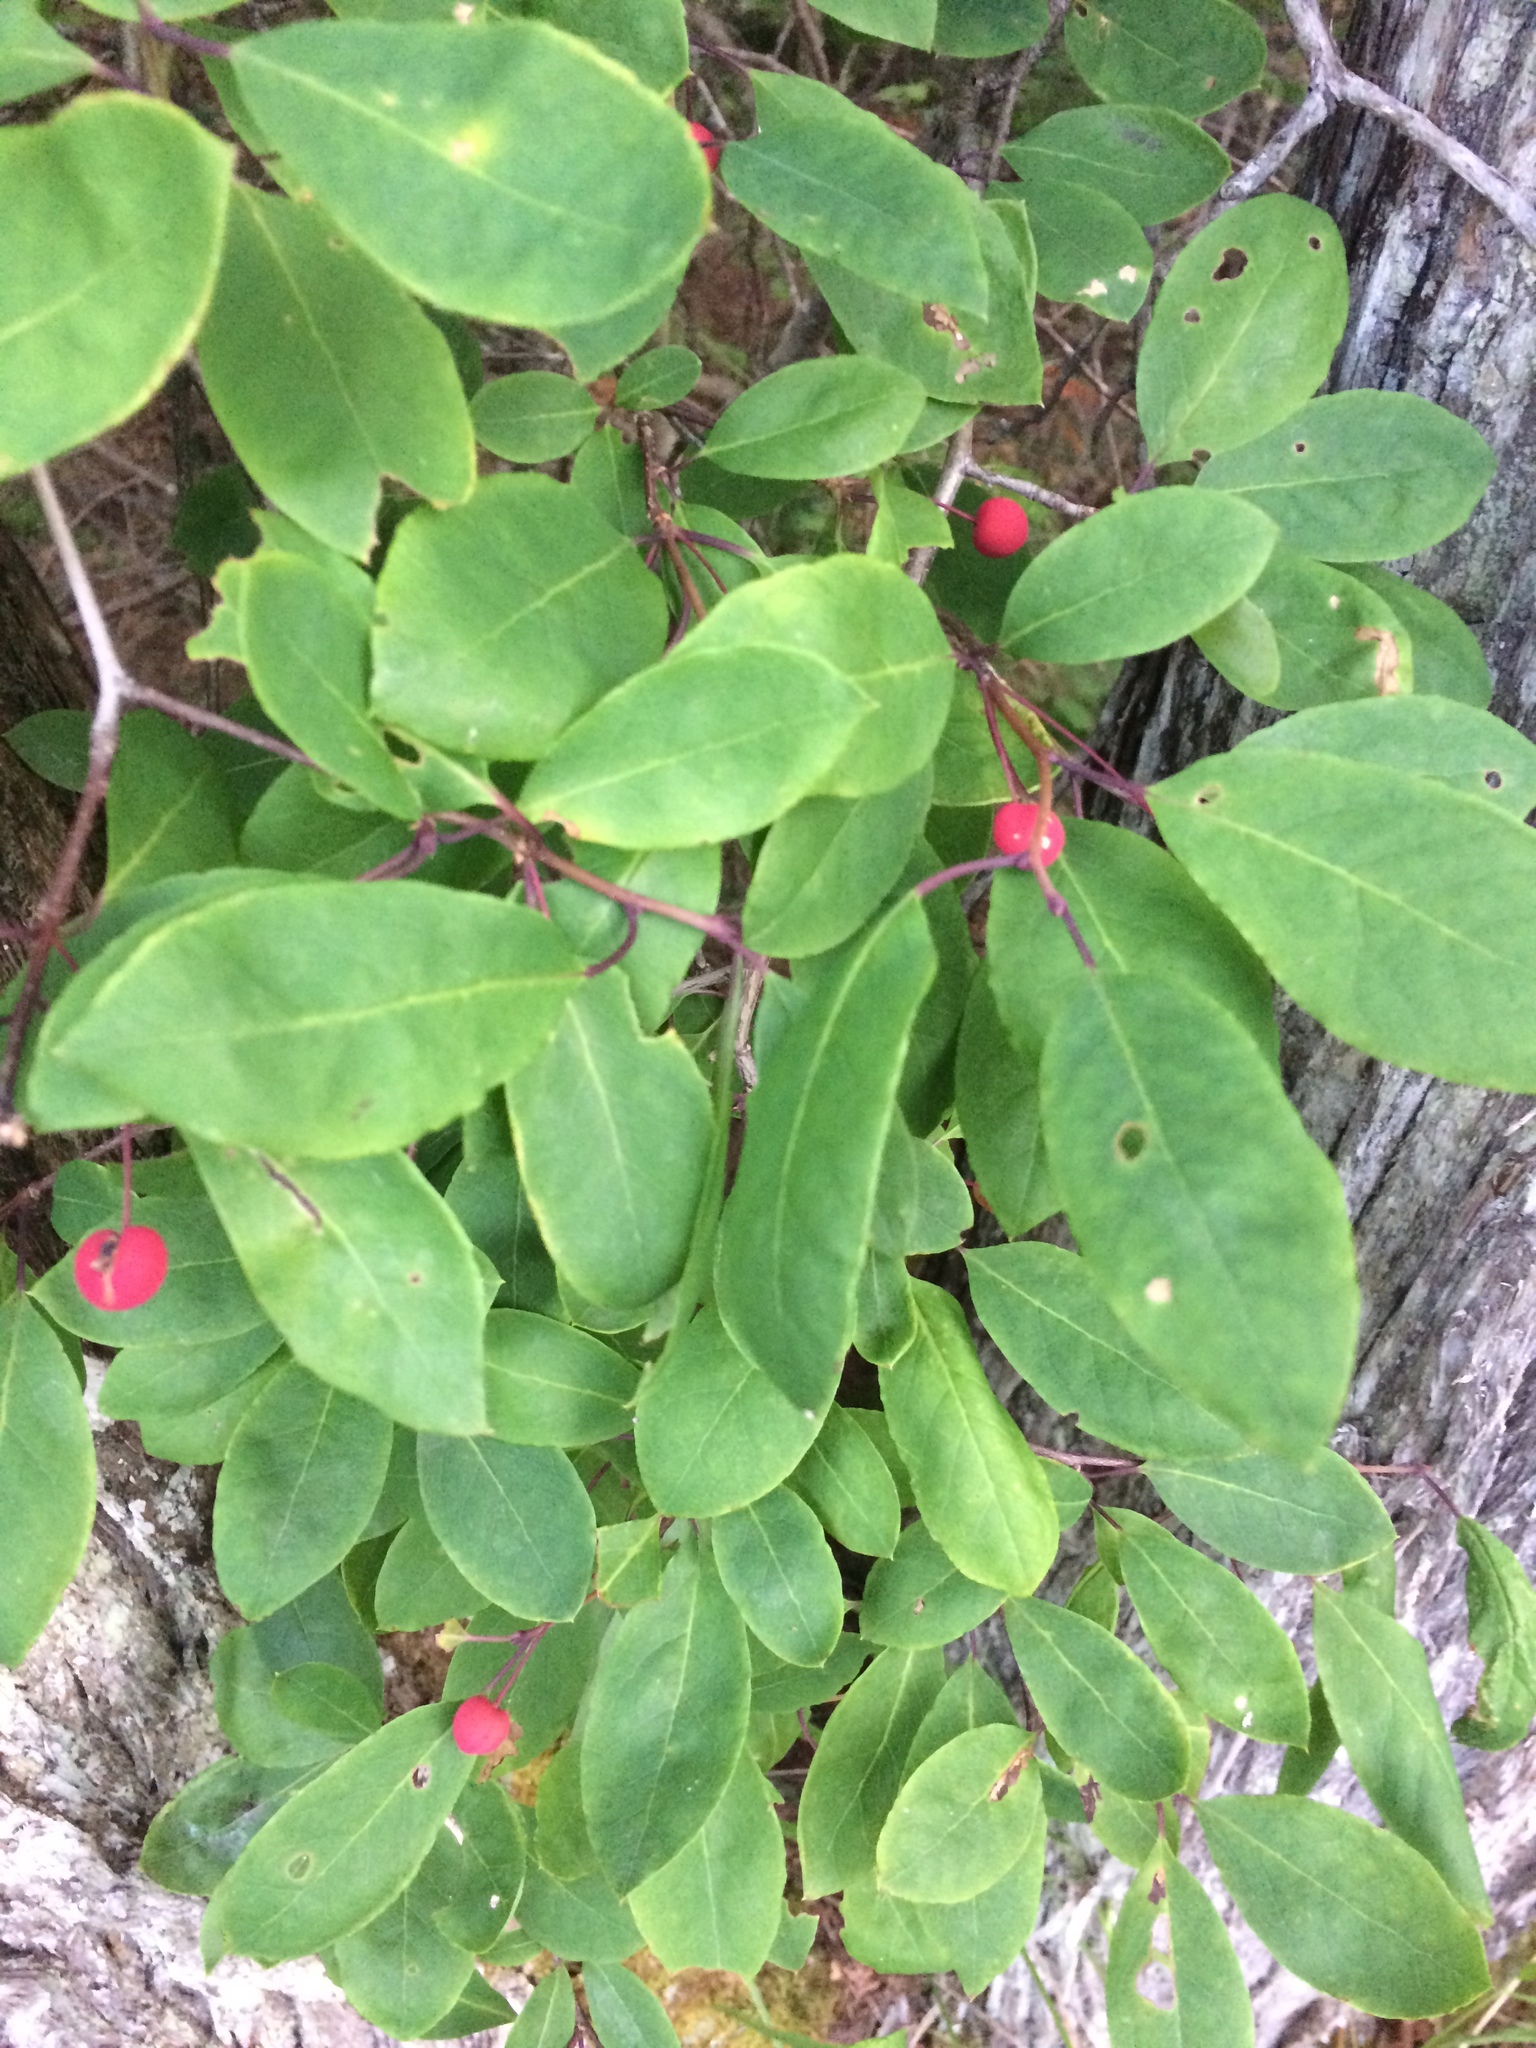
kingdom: Plantae
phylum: Tracheophyta
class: Magnoliopsida
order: Aquifoliales
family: Aquifoliaceae
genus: Ilex
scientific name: Ilex mucronata
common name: Catberry
